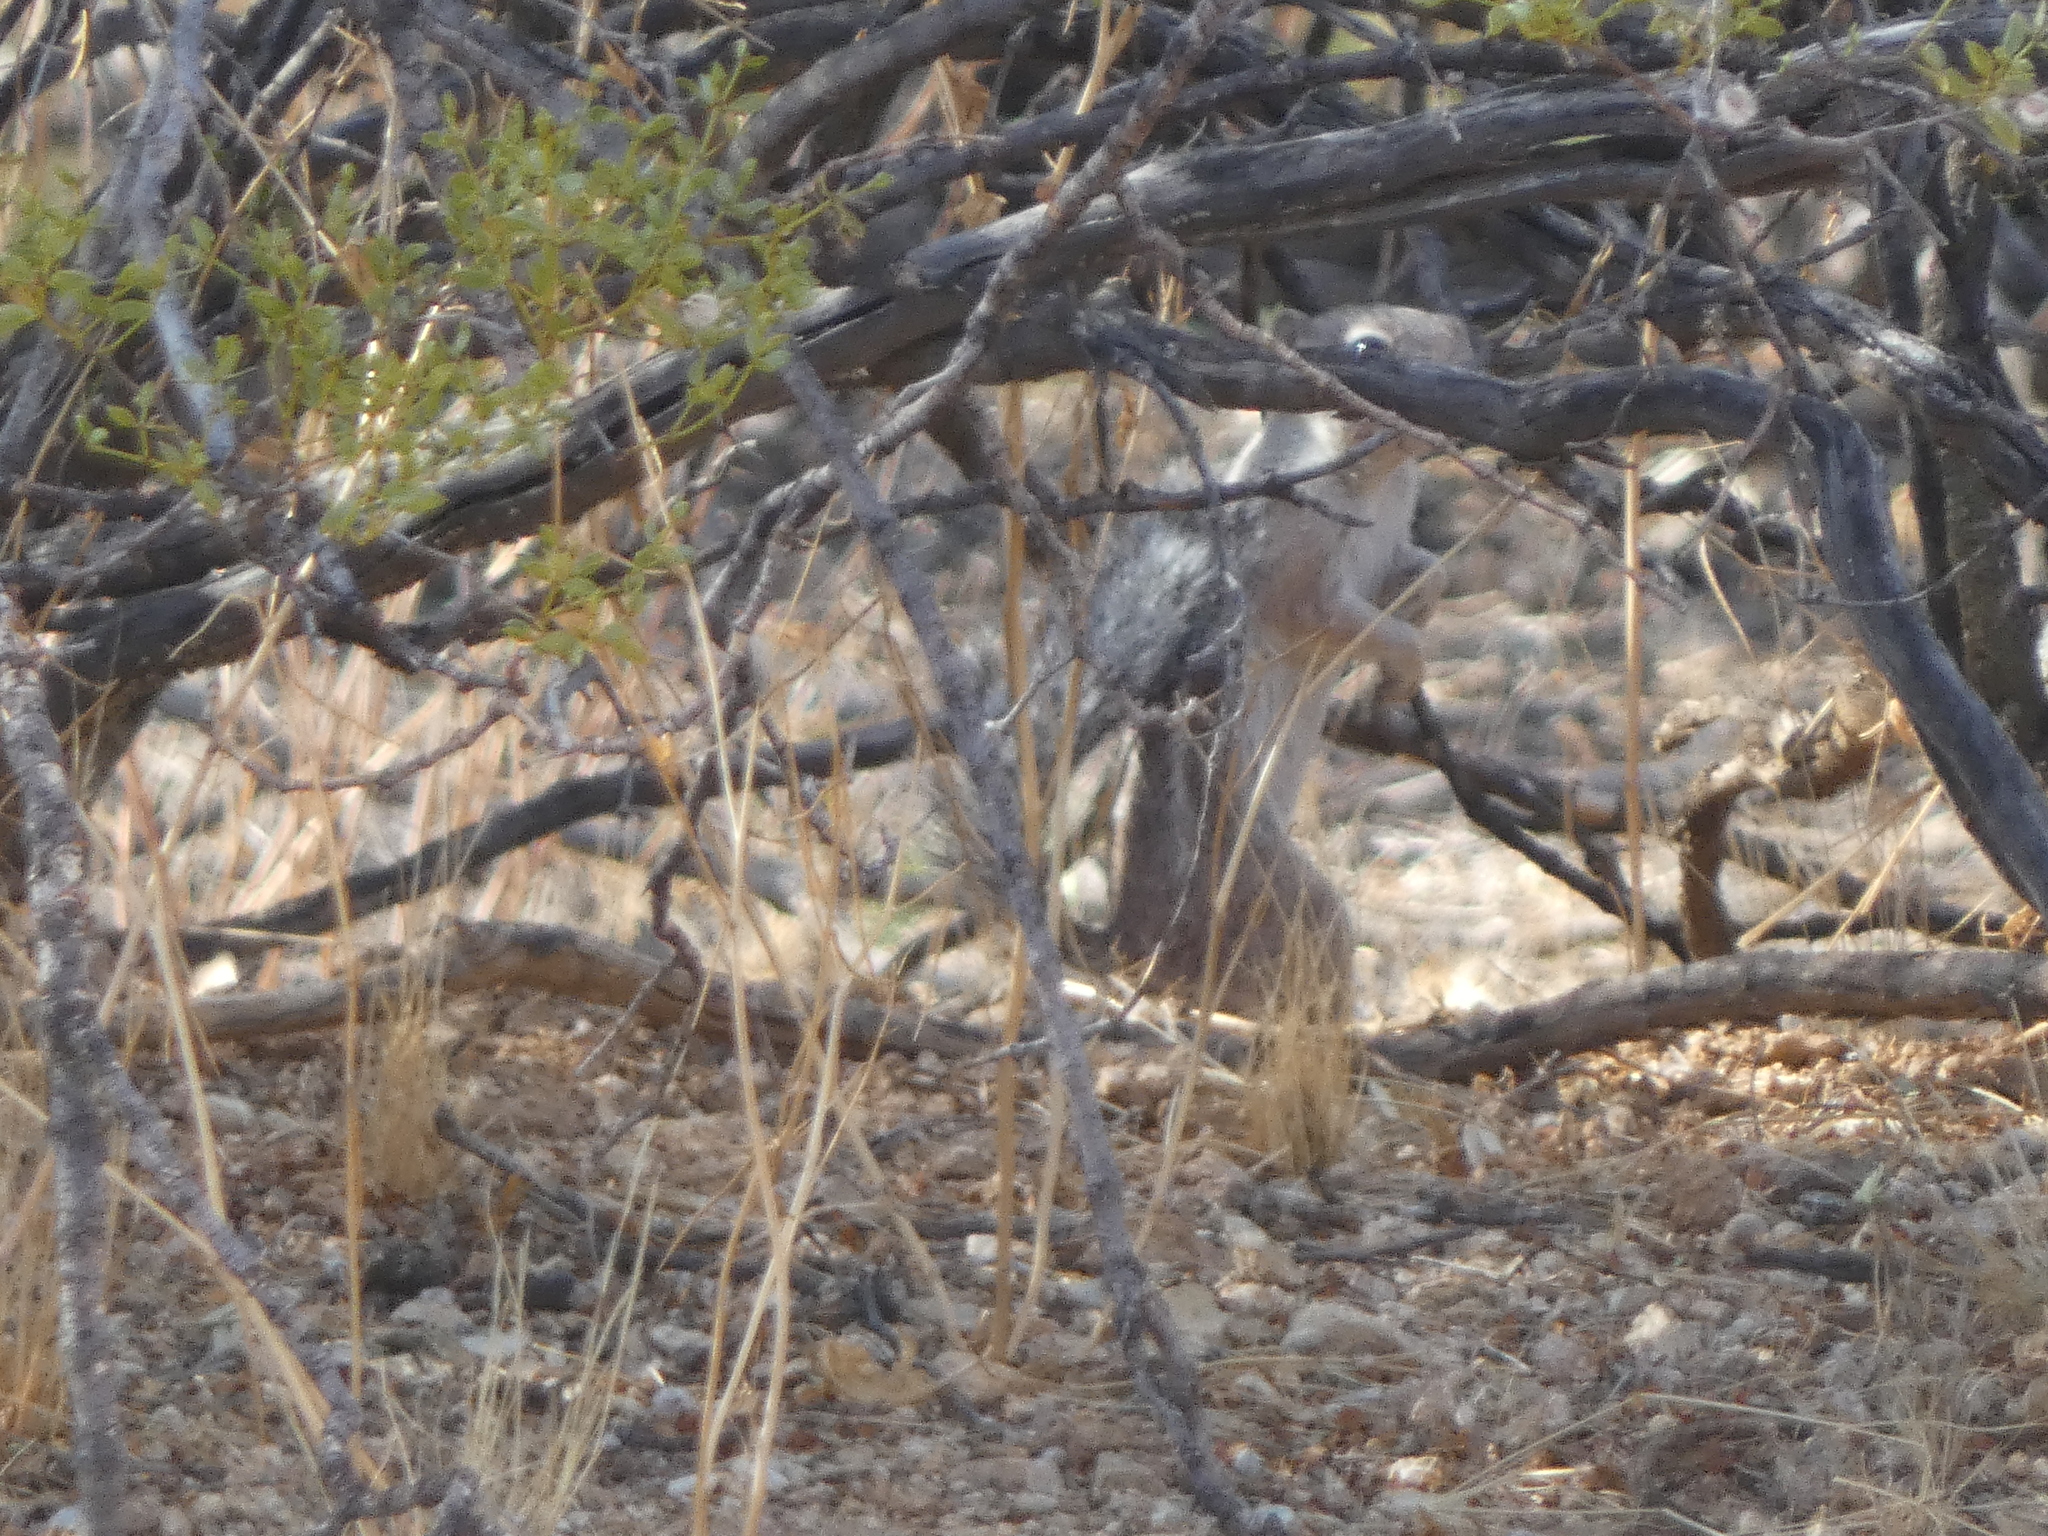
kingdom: Animalia
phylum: Chordata
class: Mammalia
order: Rodentia
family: Sciuridae
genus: Ammospermophilus
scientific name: Ammospermophilus harrisii
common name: Harris's antelope squirrel
